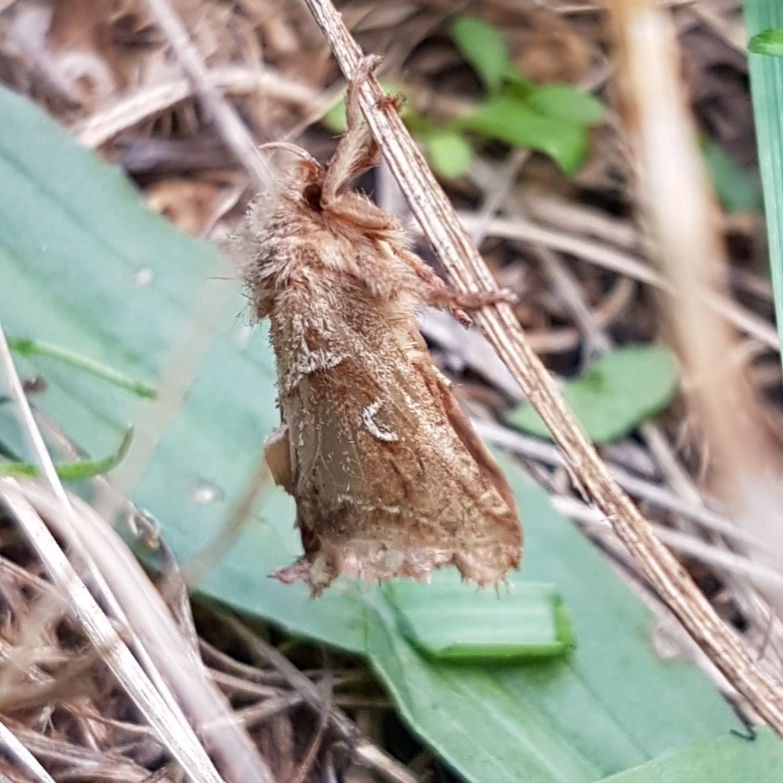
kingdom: Animalia
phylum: Arthropoda
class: Insecta
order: Lepidoptera
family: Hepialidae
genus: Triodia
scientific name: Triodia sylvina
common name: Orange swift
